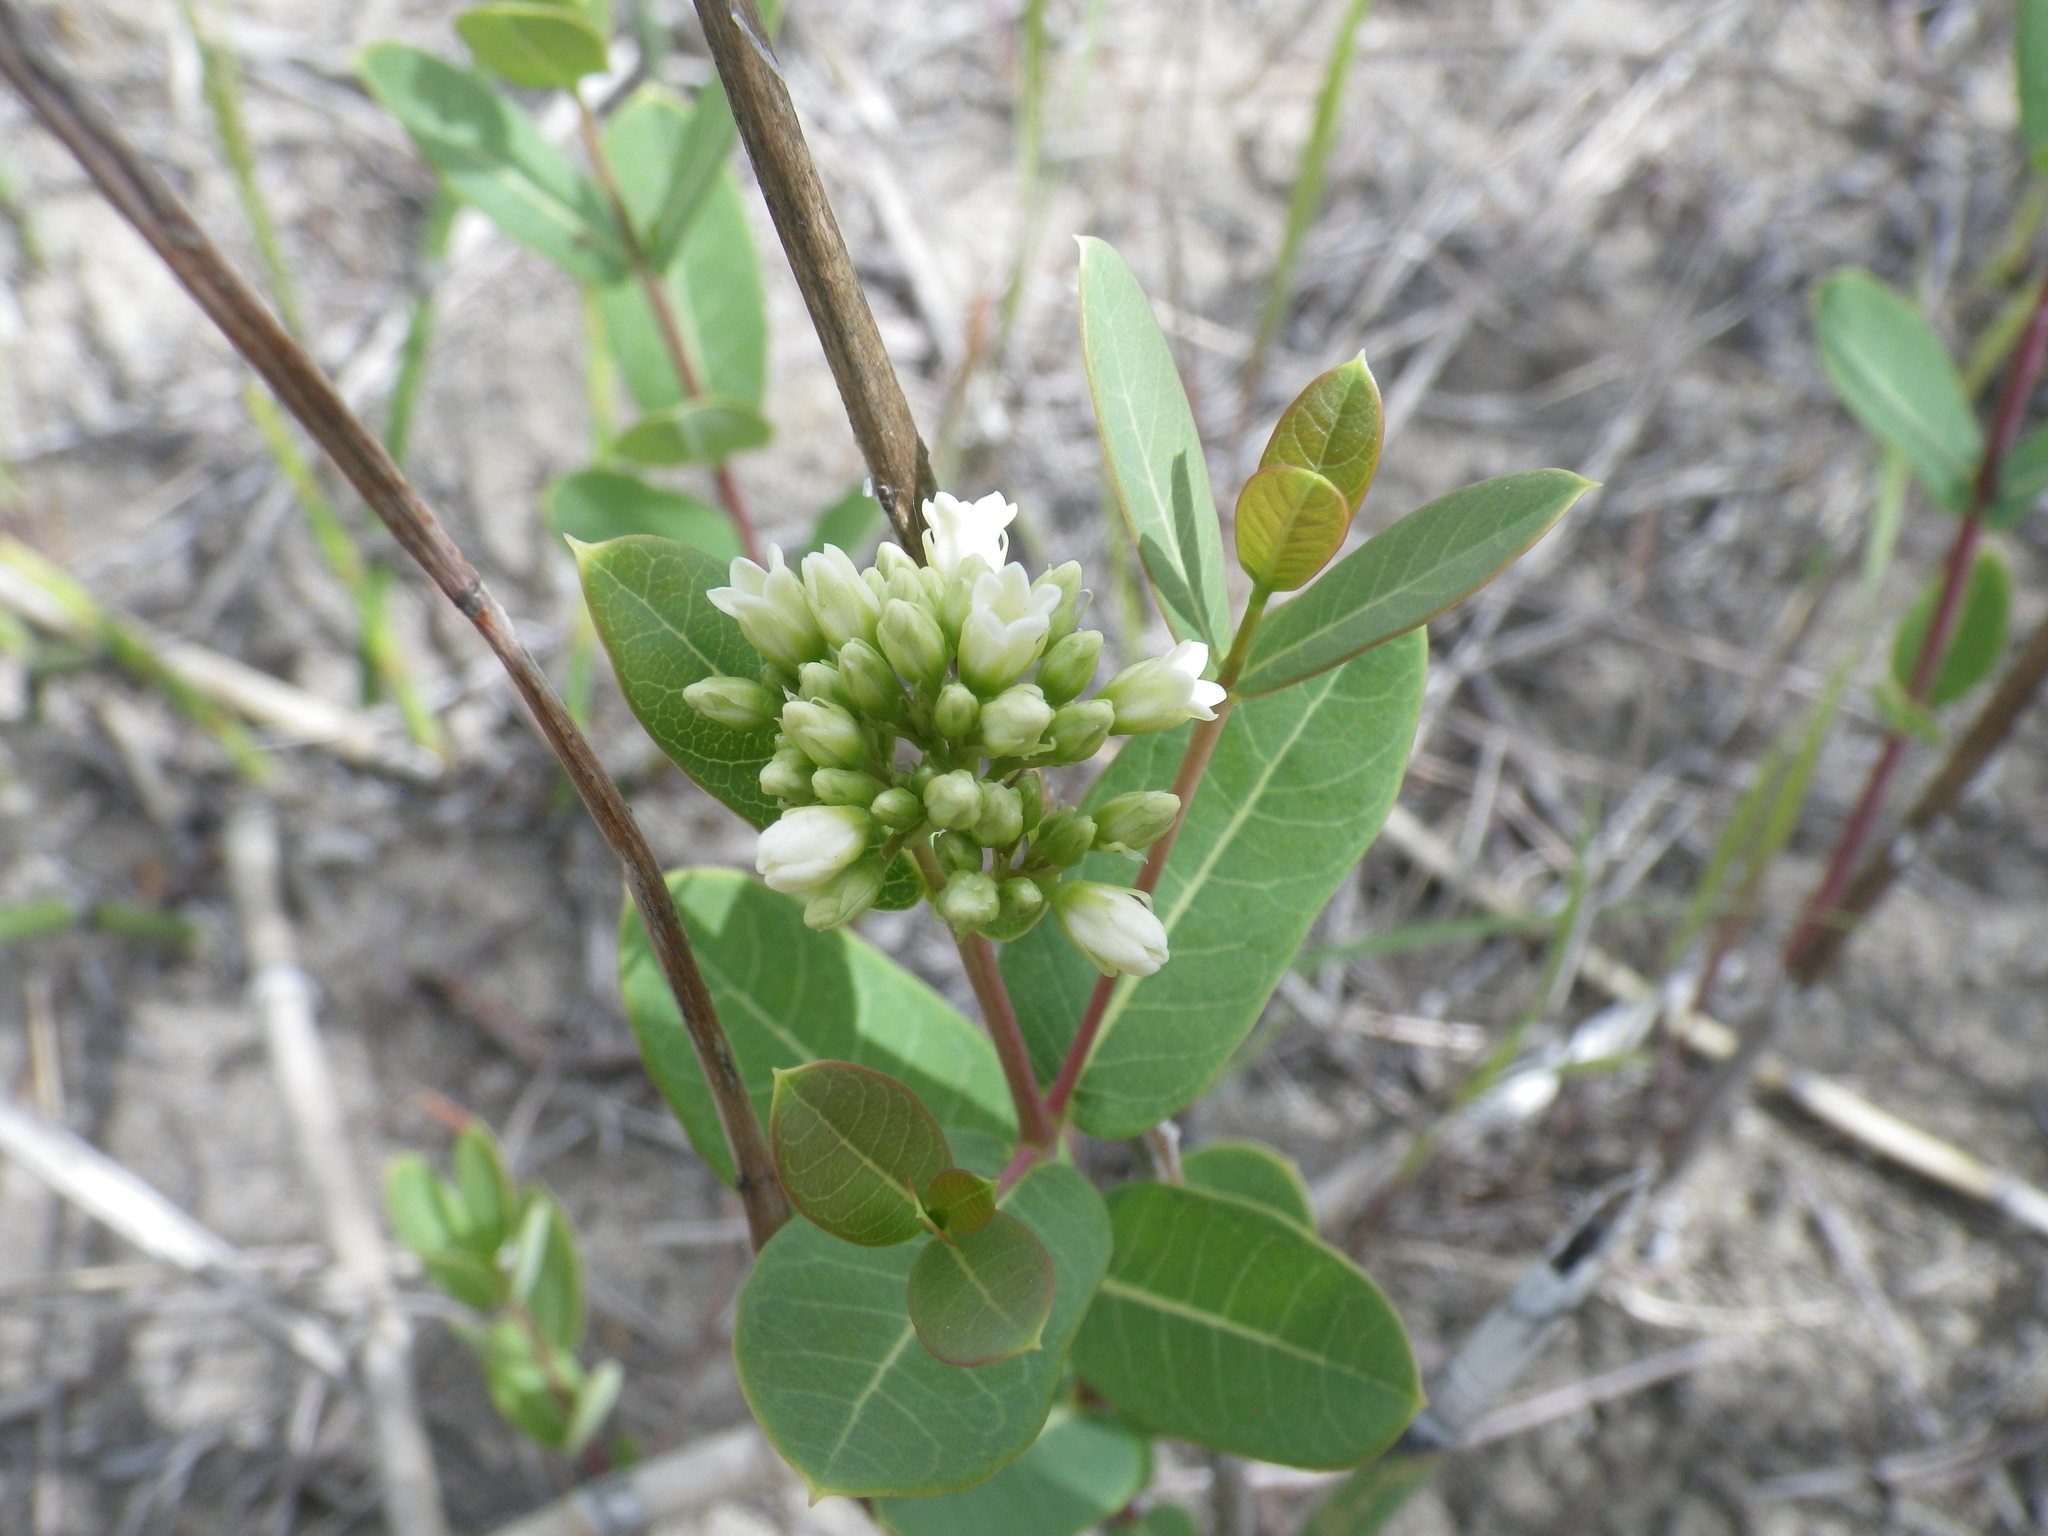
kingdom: Plantae
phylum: Tracheophyta
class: Magnoliopsida
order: Gentianales
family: Apocynaceae
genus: Apocynum
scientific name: Apocynum cannabinum
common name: Hemp dogbane
